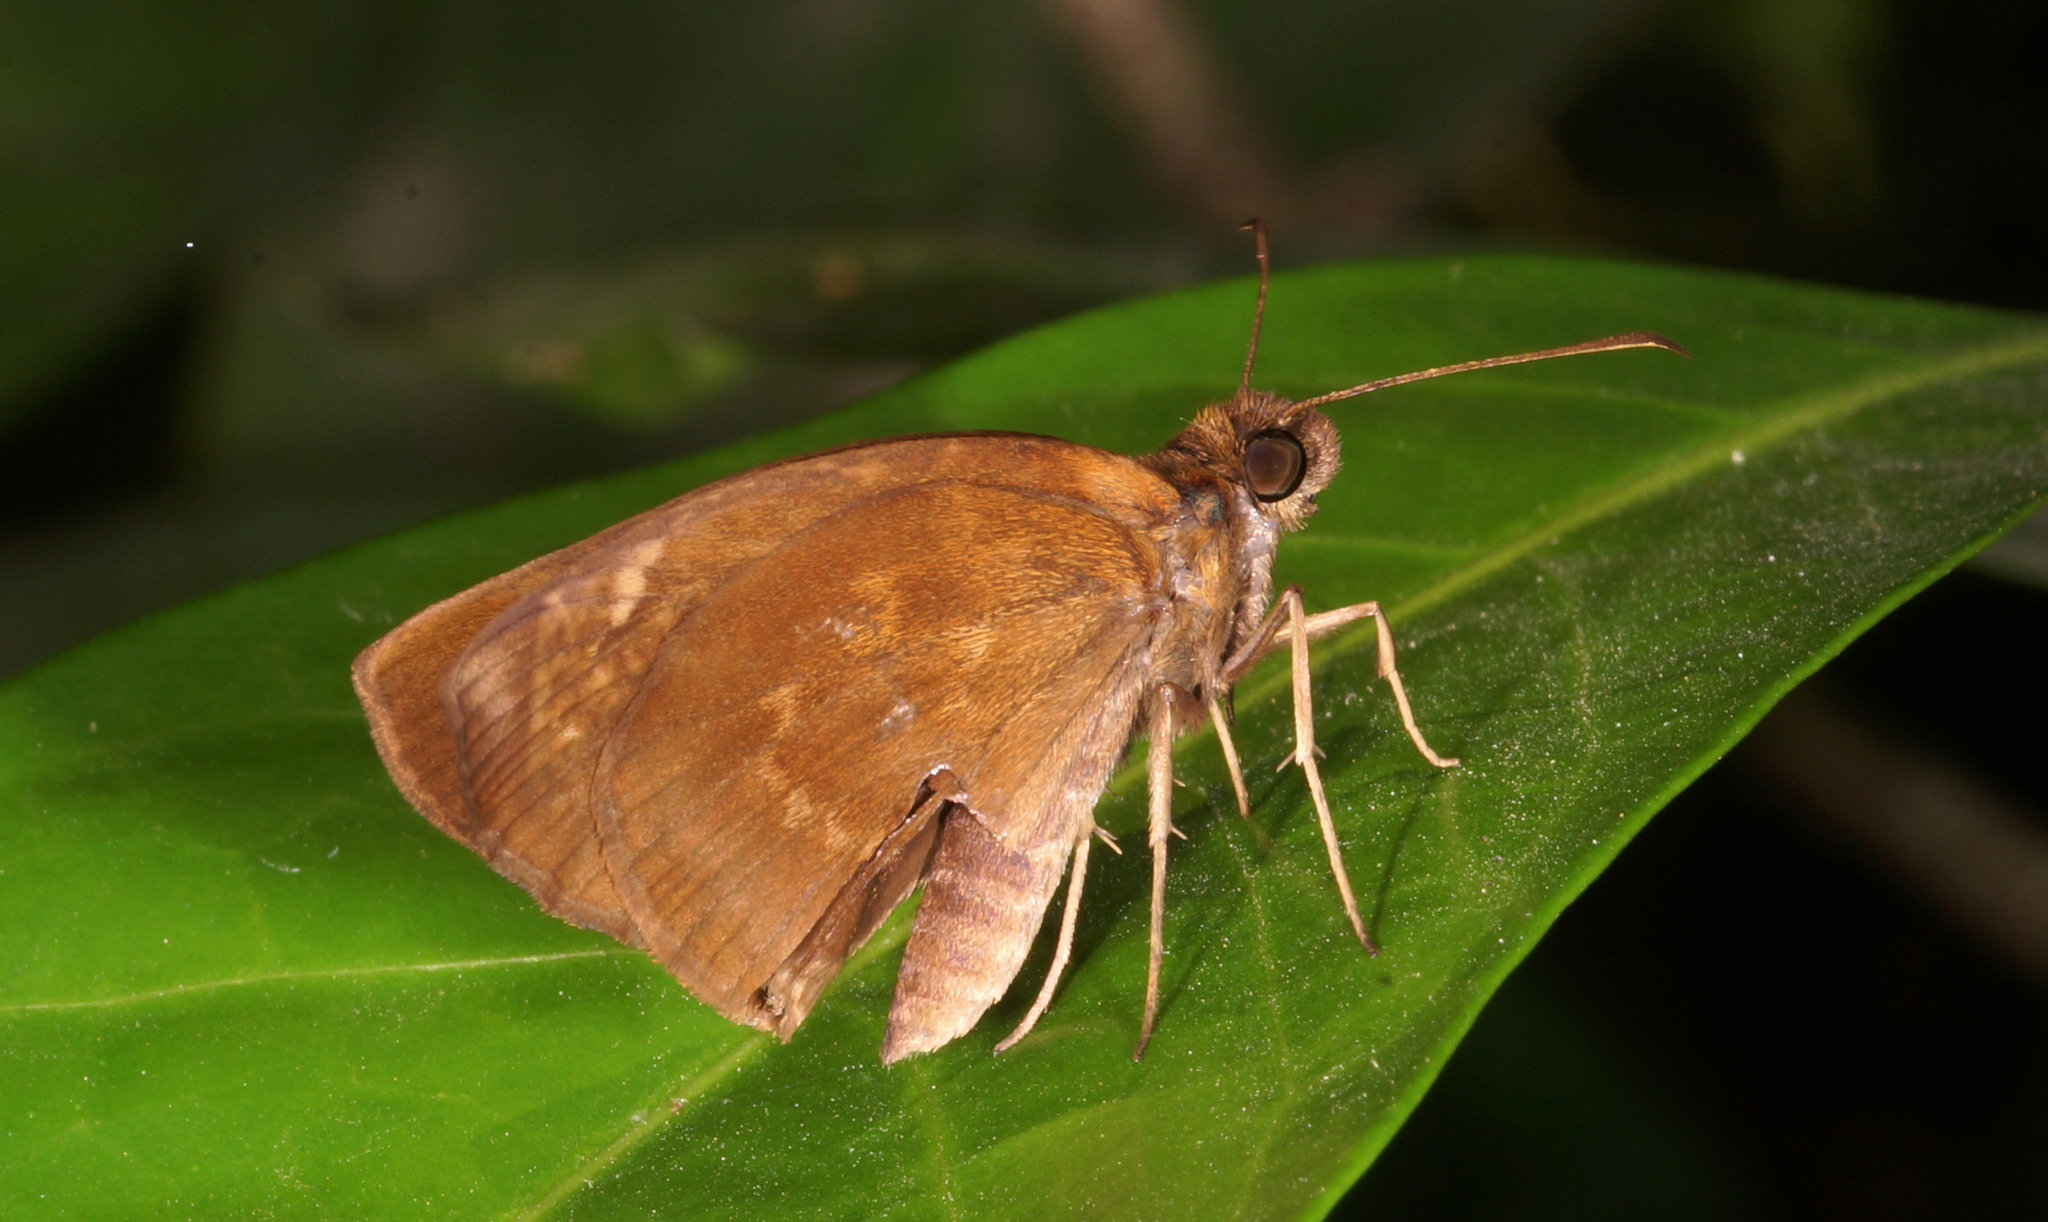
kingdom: Animalia
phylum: Arthropoda
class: Insecta
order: Lepidoptera
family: Hesperiidae
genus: Psolos
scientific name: Psolos fuligo
